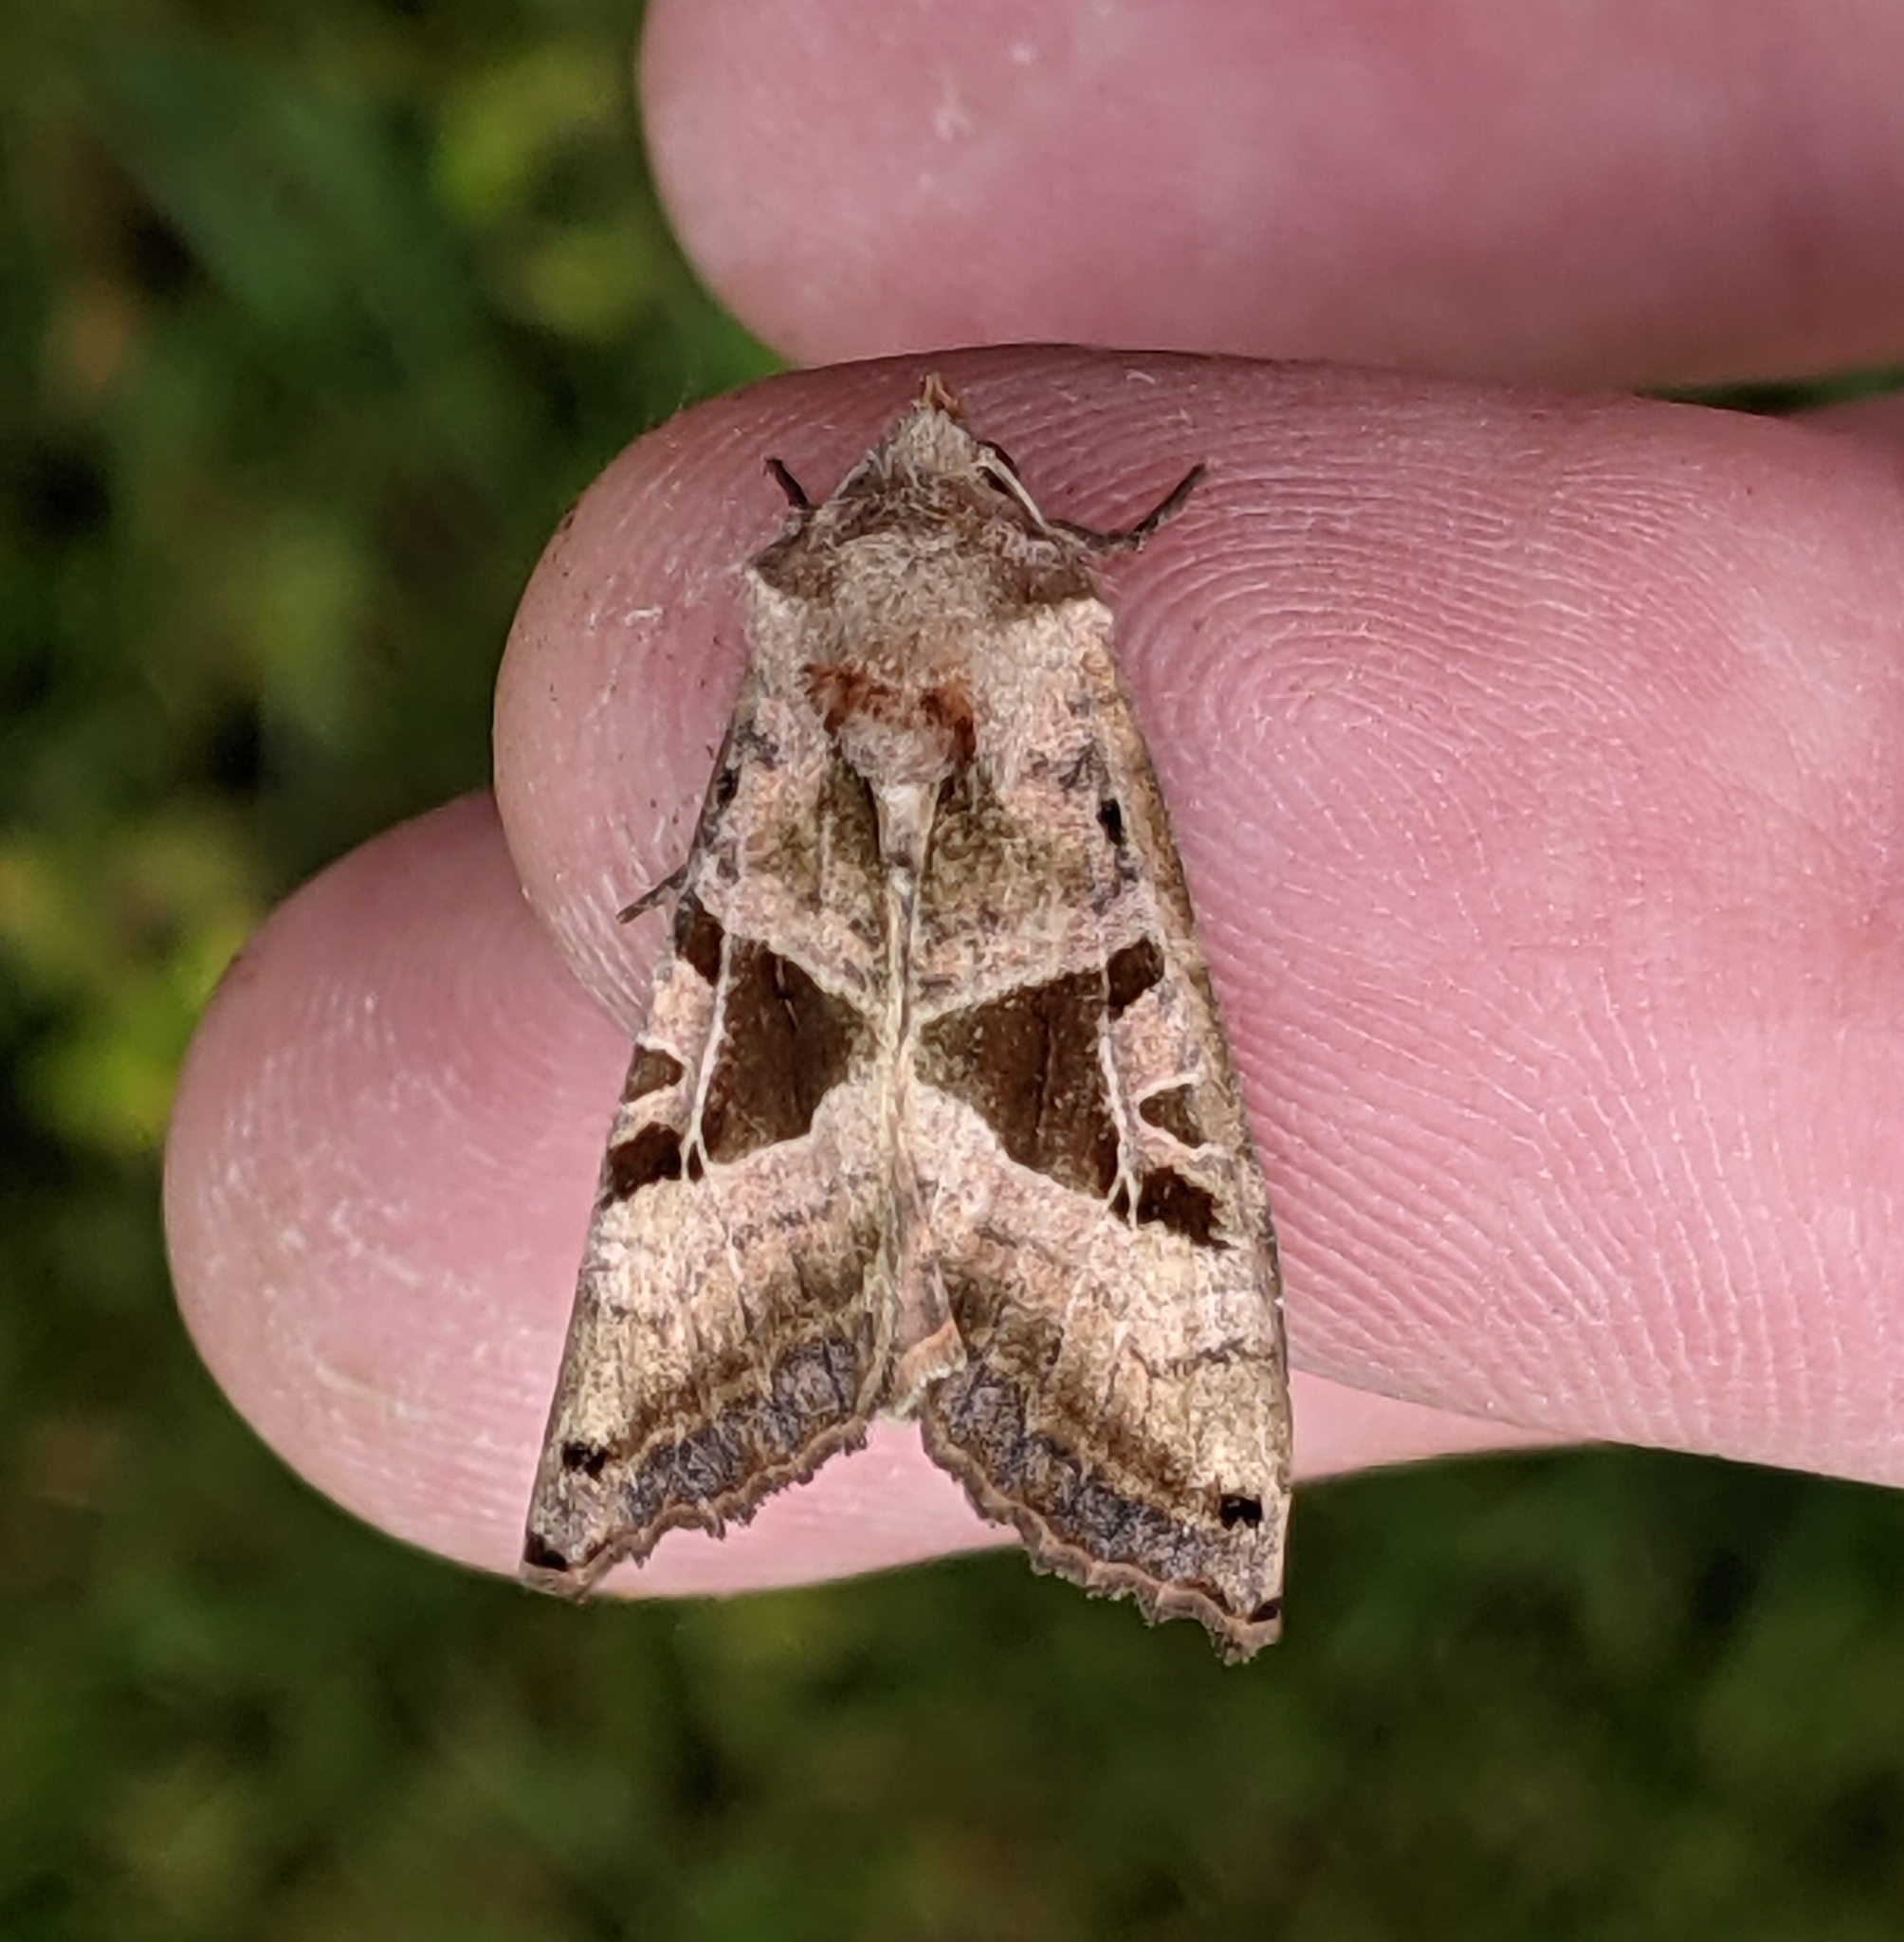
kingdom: Animalia
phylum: Arthropoda
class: Insecta
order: Lepidoptera
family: Noctuidae
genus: Phlogophora
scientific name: Phlogophora periculosa
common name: Brown angle shades
